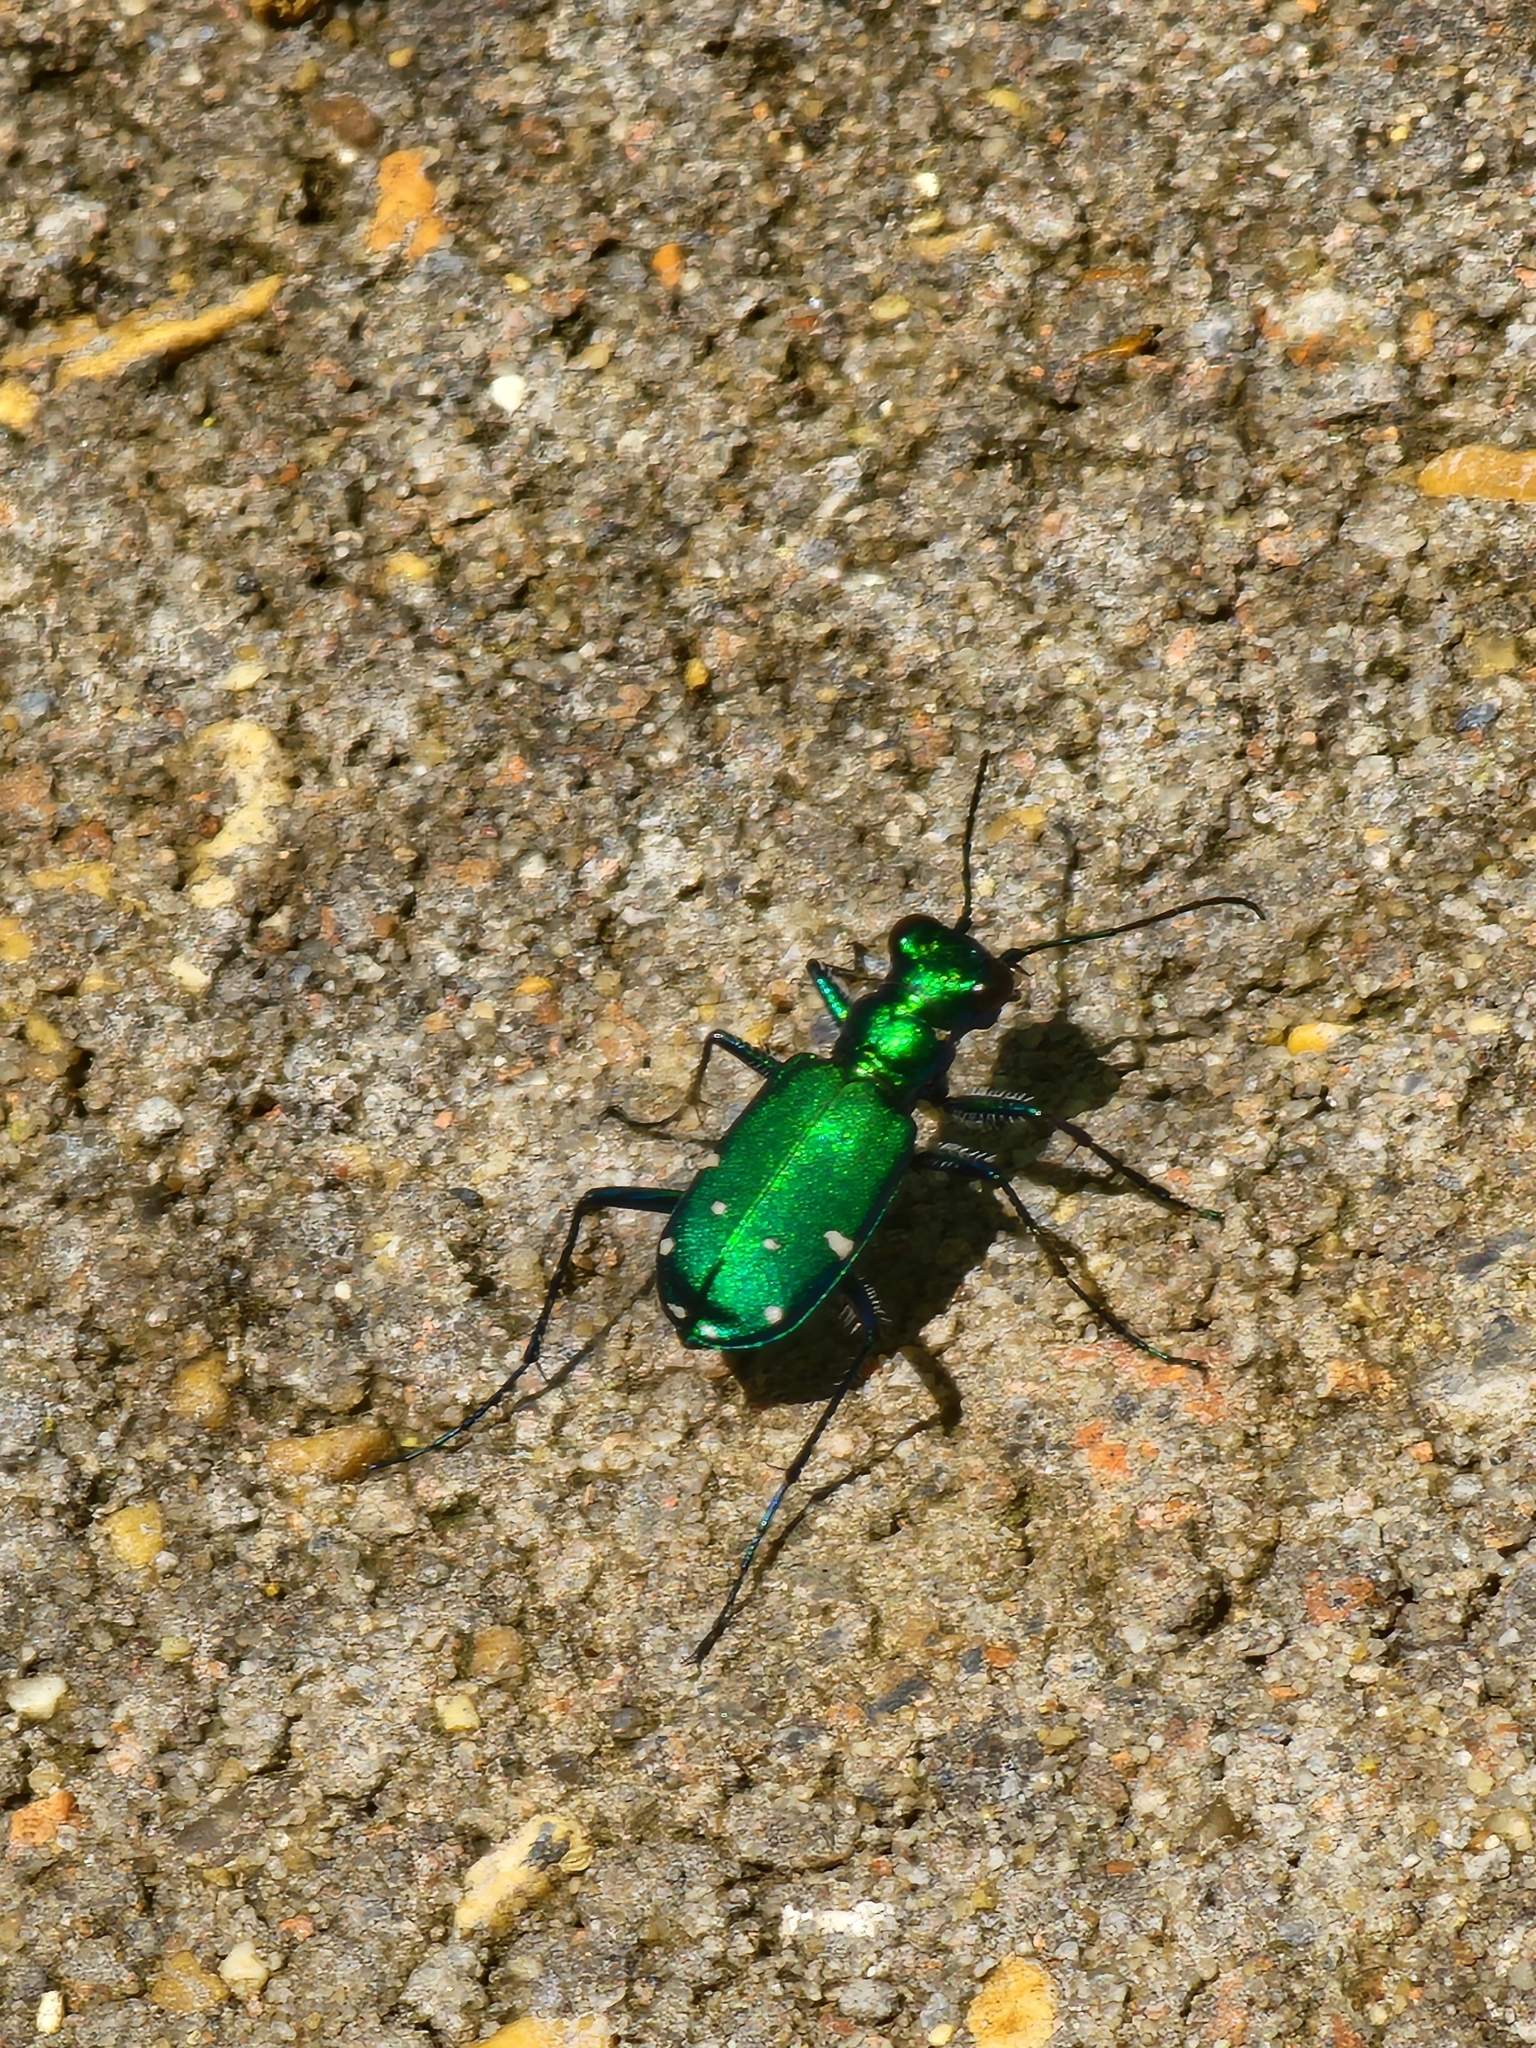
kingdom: Animalia
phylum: Arthropoda
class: Insecta
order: Coleoptera
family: Carabidae
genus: Cicindela
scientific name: Cicindela sexguttata
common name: Six-spotted tiger beetle
